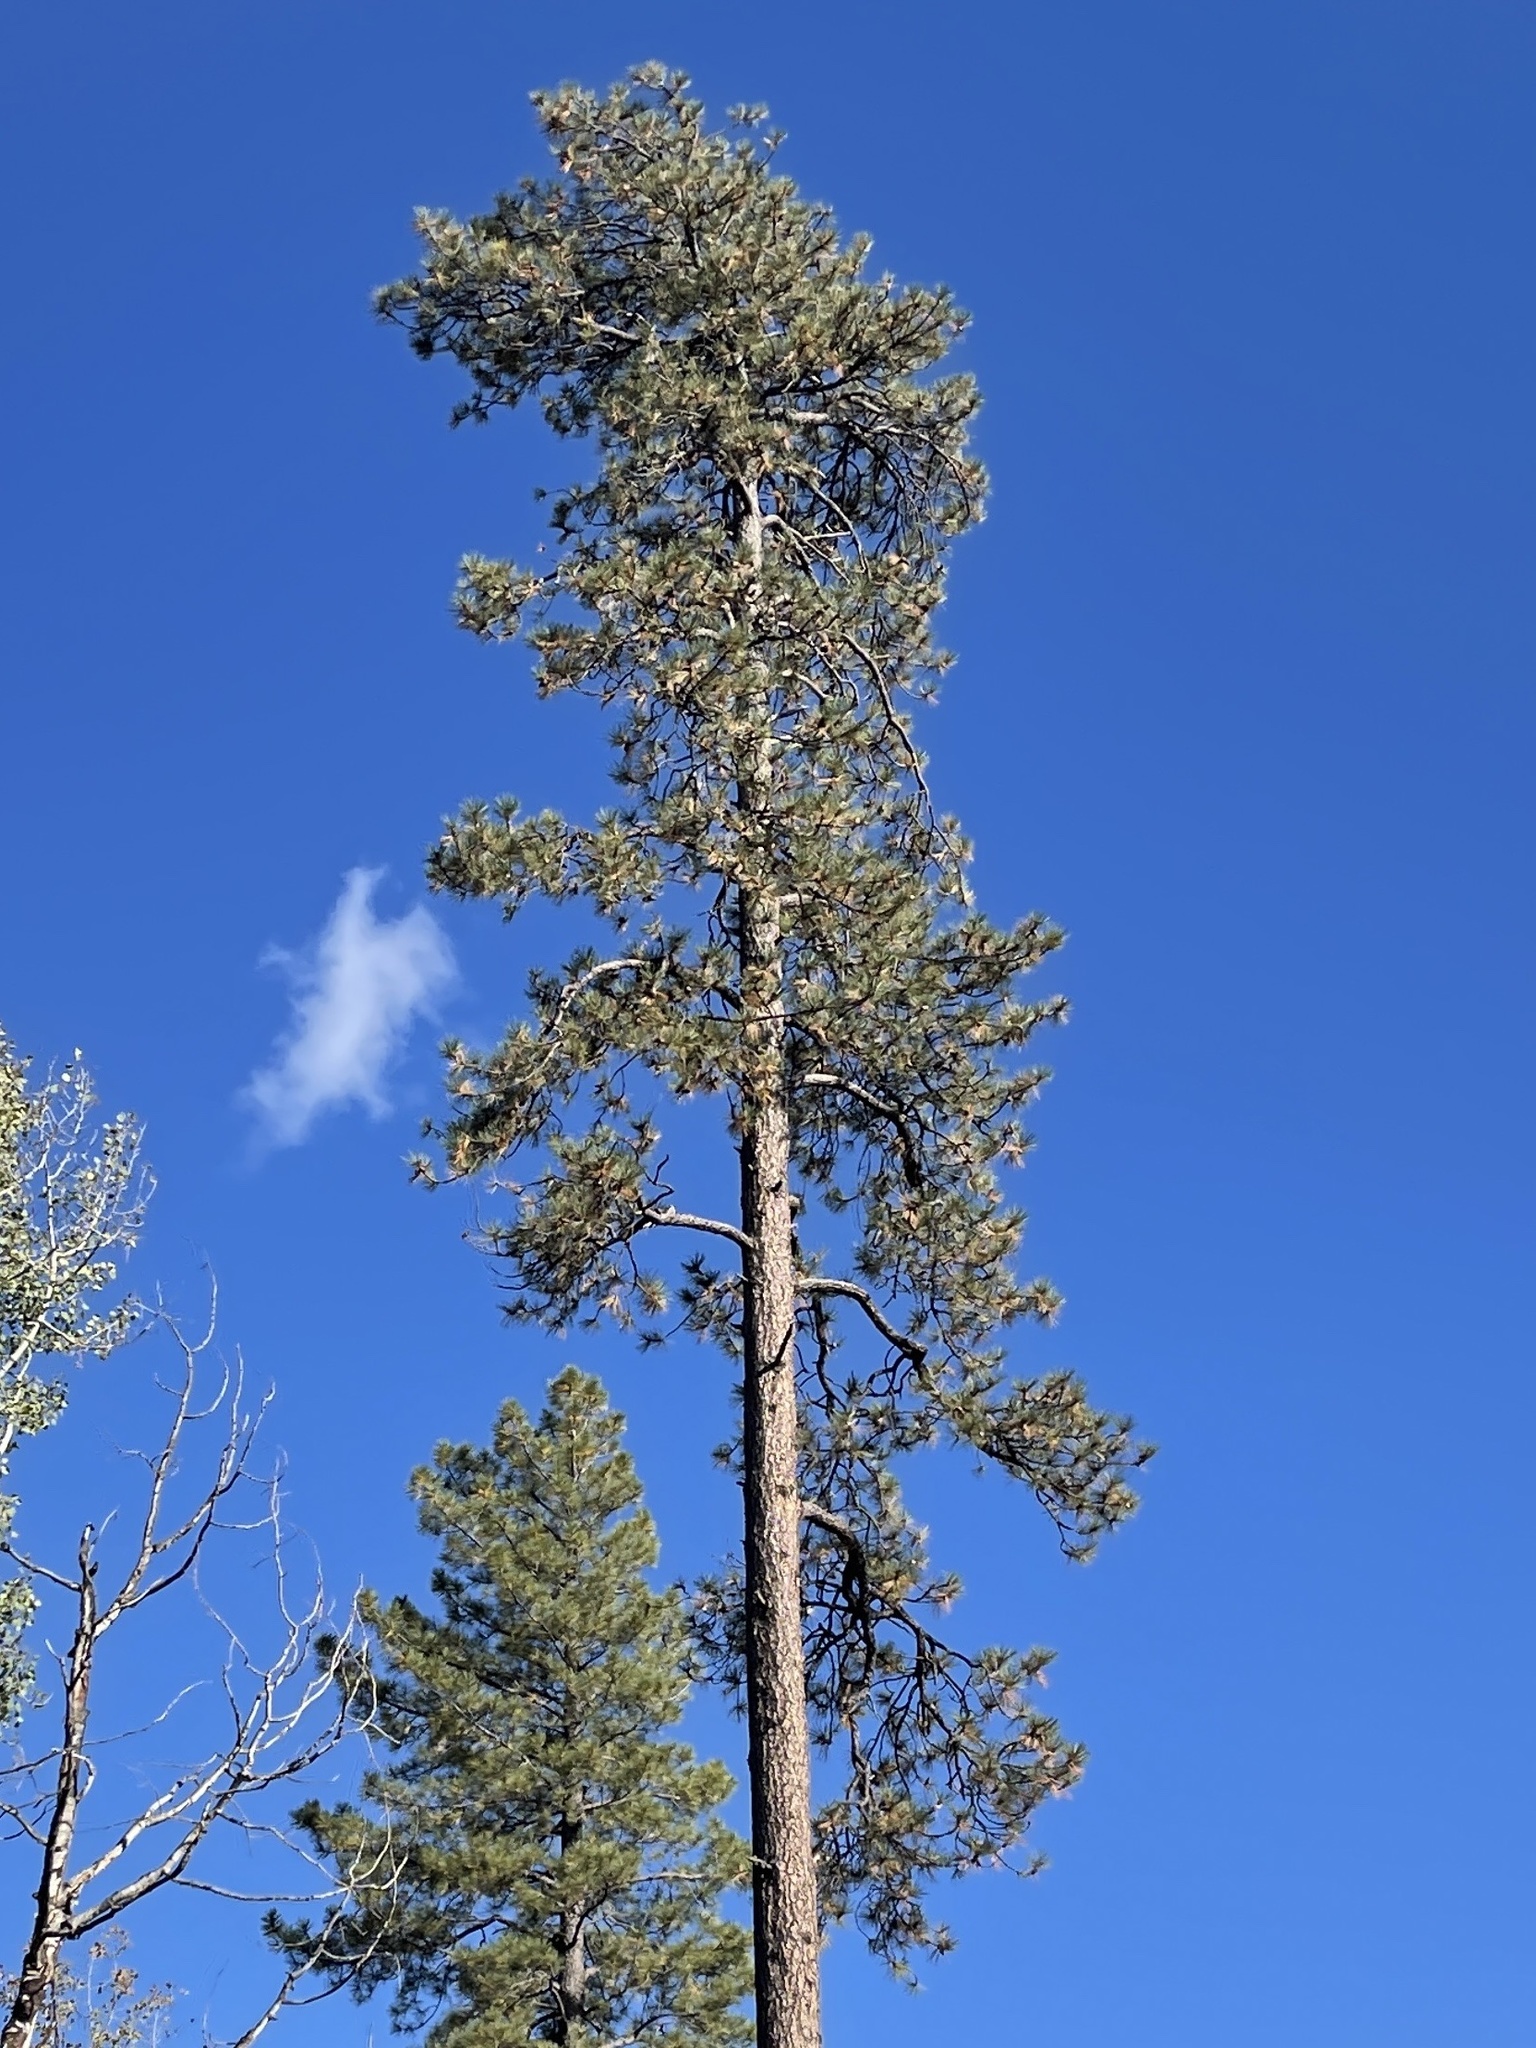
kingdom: Plantae
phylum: Tracheophyta
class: Pinopsida
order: Pinales
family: Pinaceae
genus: Pinus
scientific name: Pinus ponderosa
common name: Western yellow-pine
